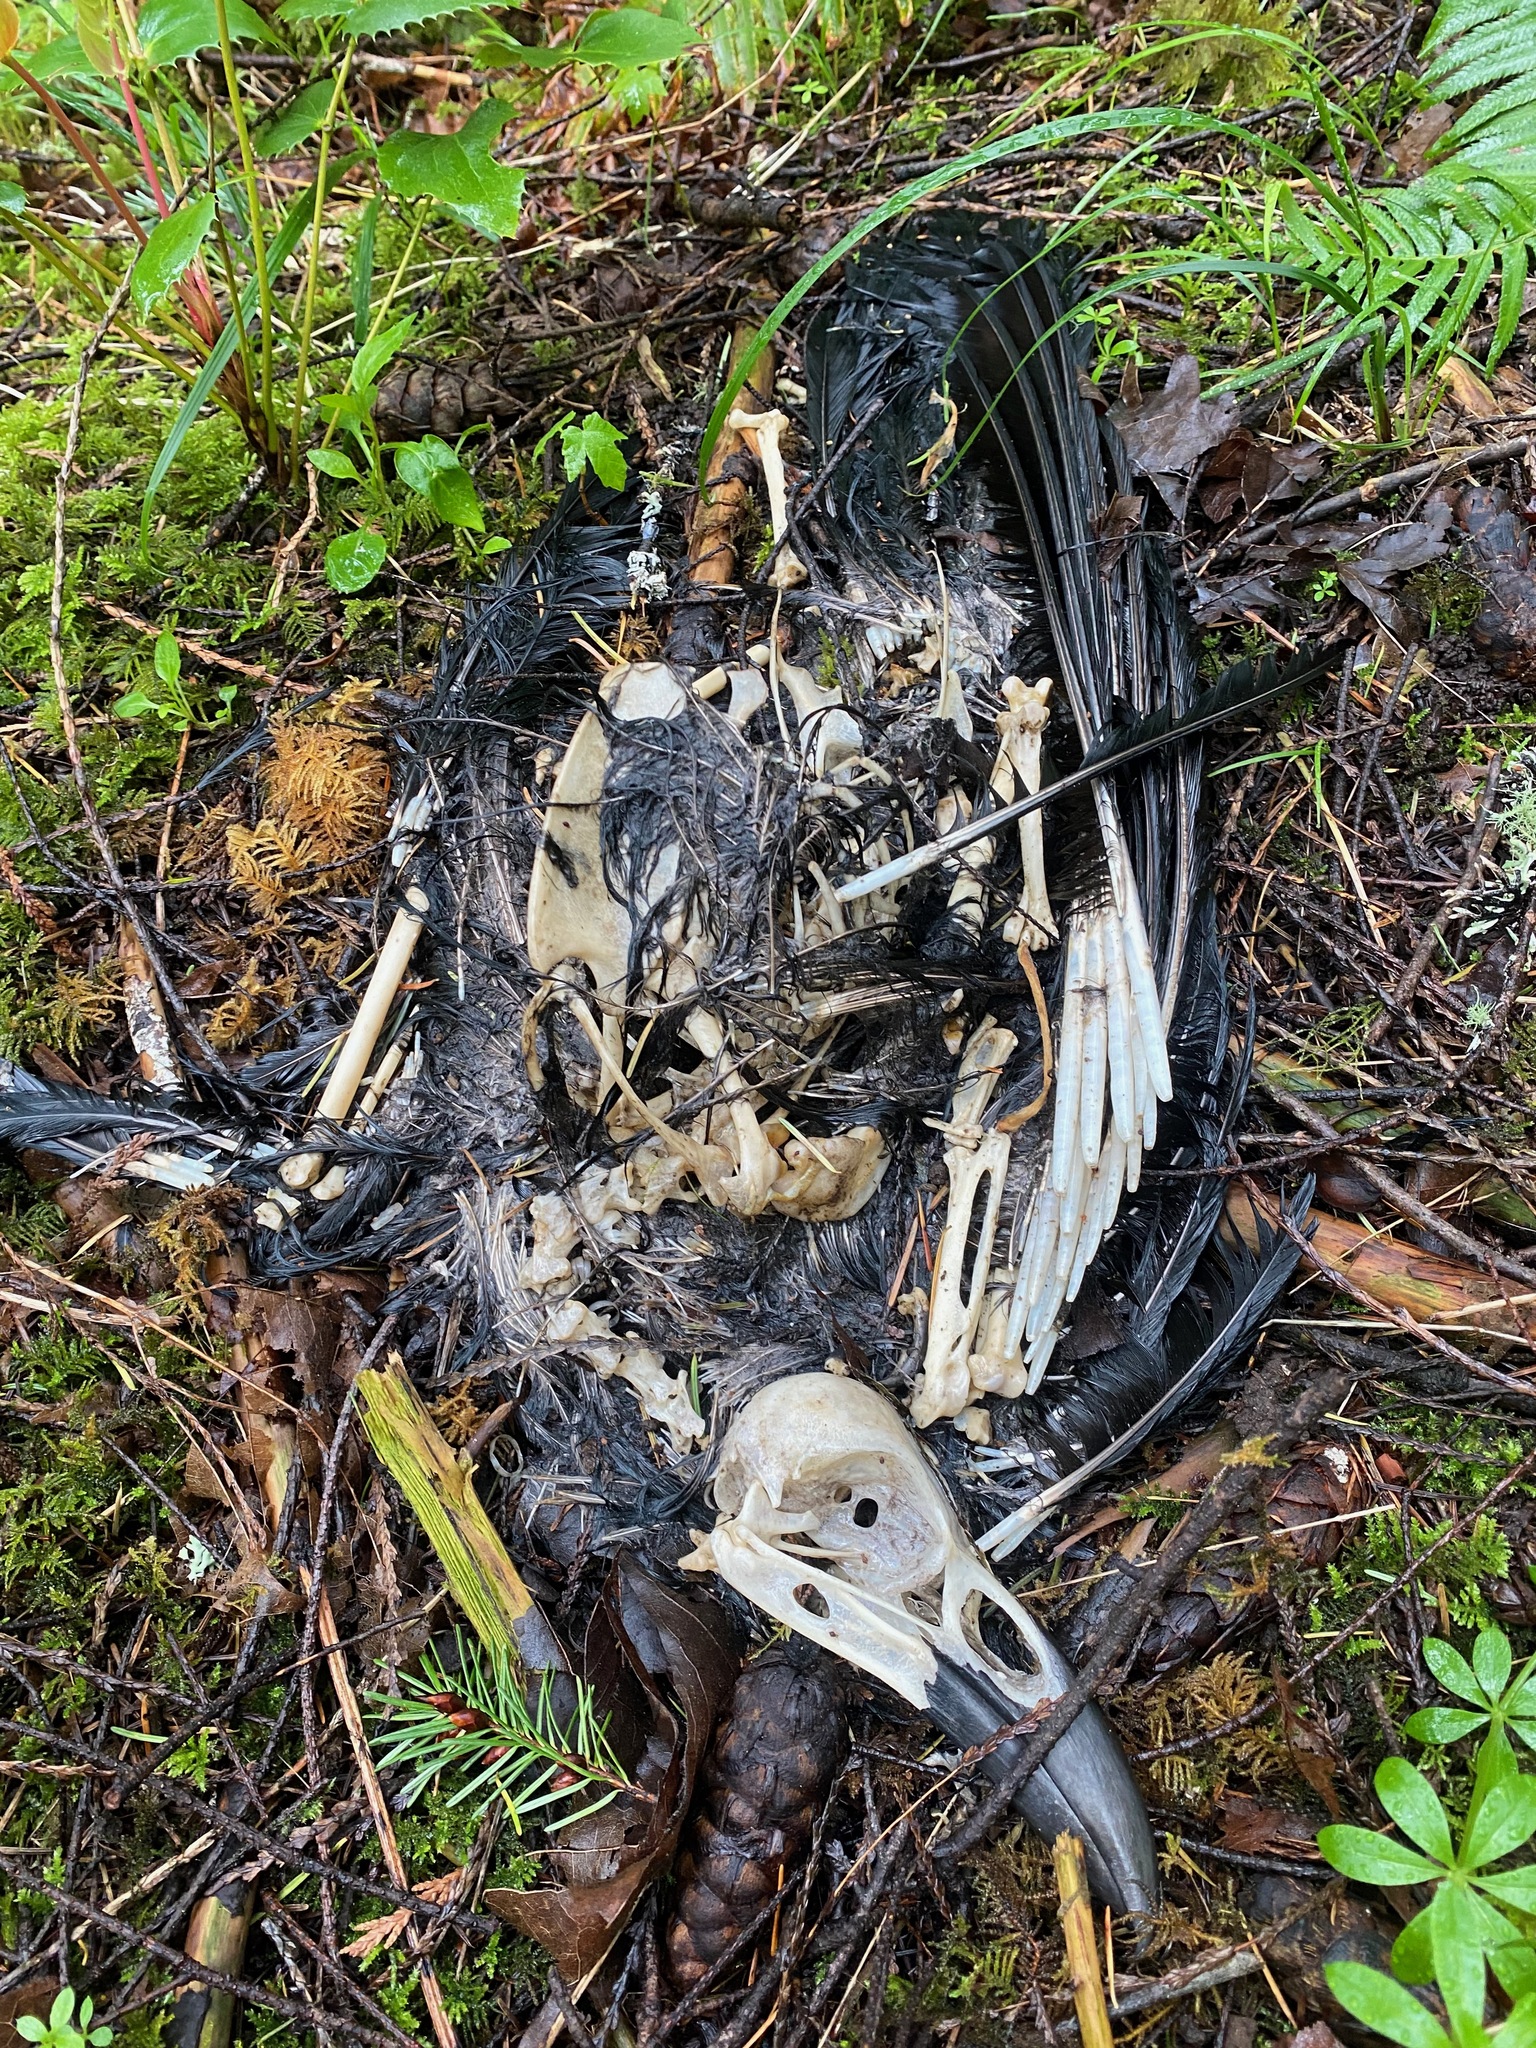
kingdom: Animalia
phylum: Chordata
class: Aves
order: Passeriformes
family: Corvidae
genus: Corvus
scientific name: Corvus corax
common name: Common raven
